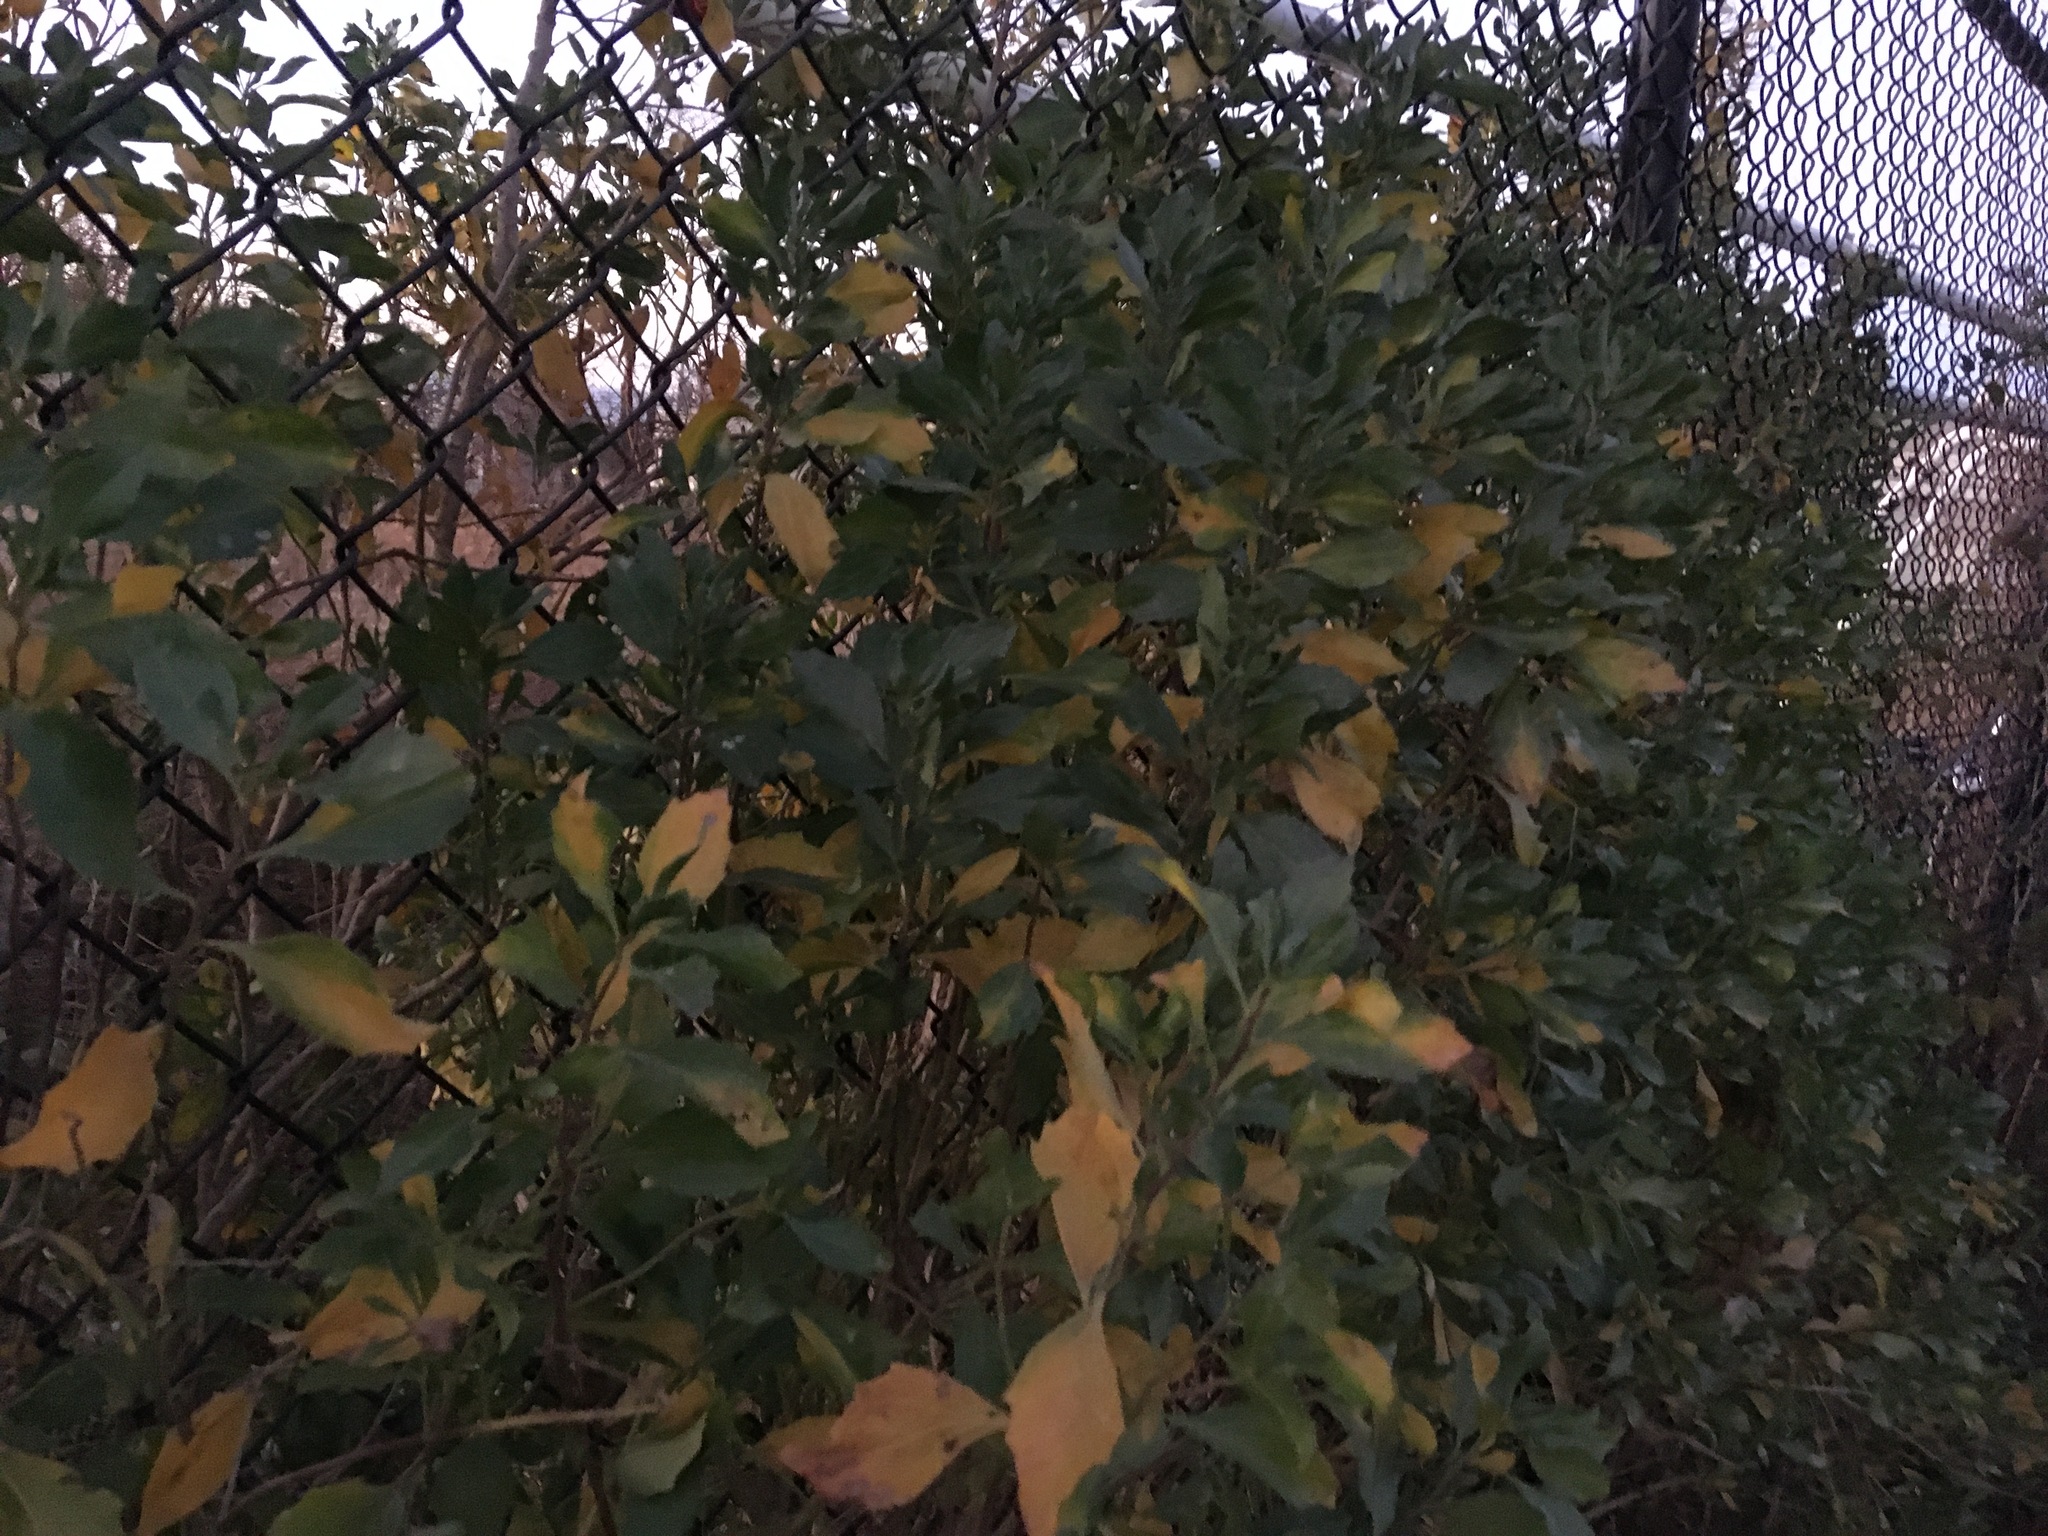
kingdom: Plantae
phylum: Tracheophyta
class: Magnoliopsida
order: Asterales
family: Asteraceae
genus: Baccharis
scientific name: Baccharis halimifolia
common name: Eastern baccharis
